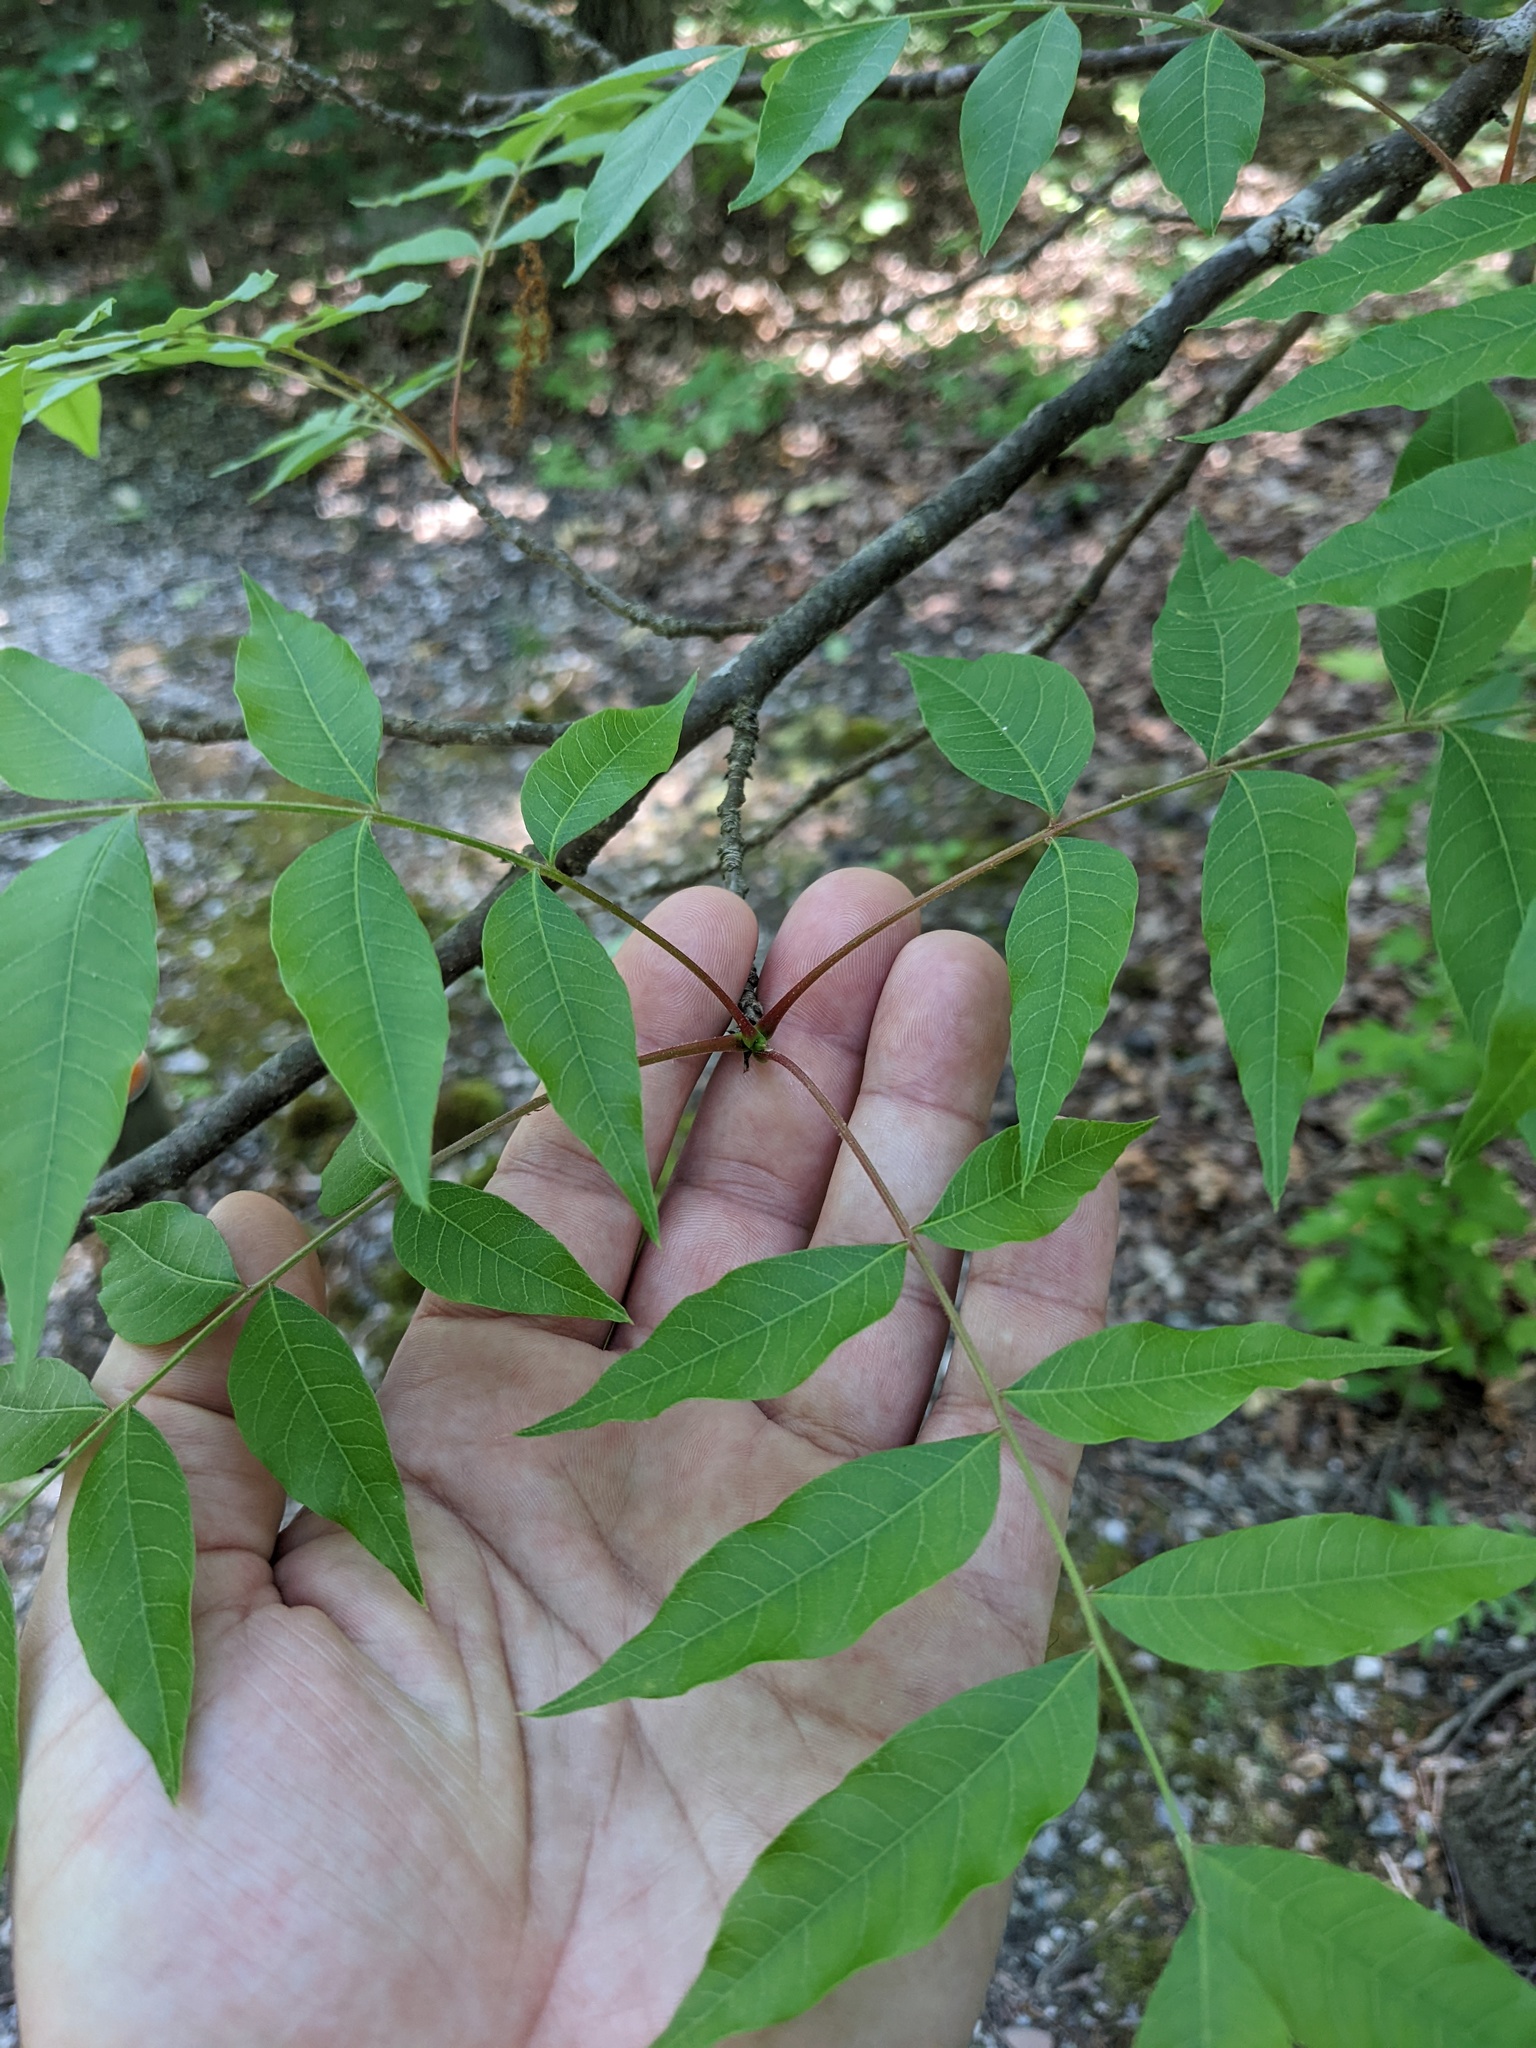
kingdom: Plantae
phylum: Tracheophyta
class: Magnoliopsida
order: Sapindales
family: Anacardiaceae
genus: Pistacia
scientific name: Pistacia chinensis
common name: Chinese pistache
